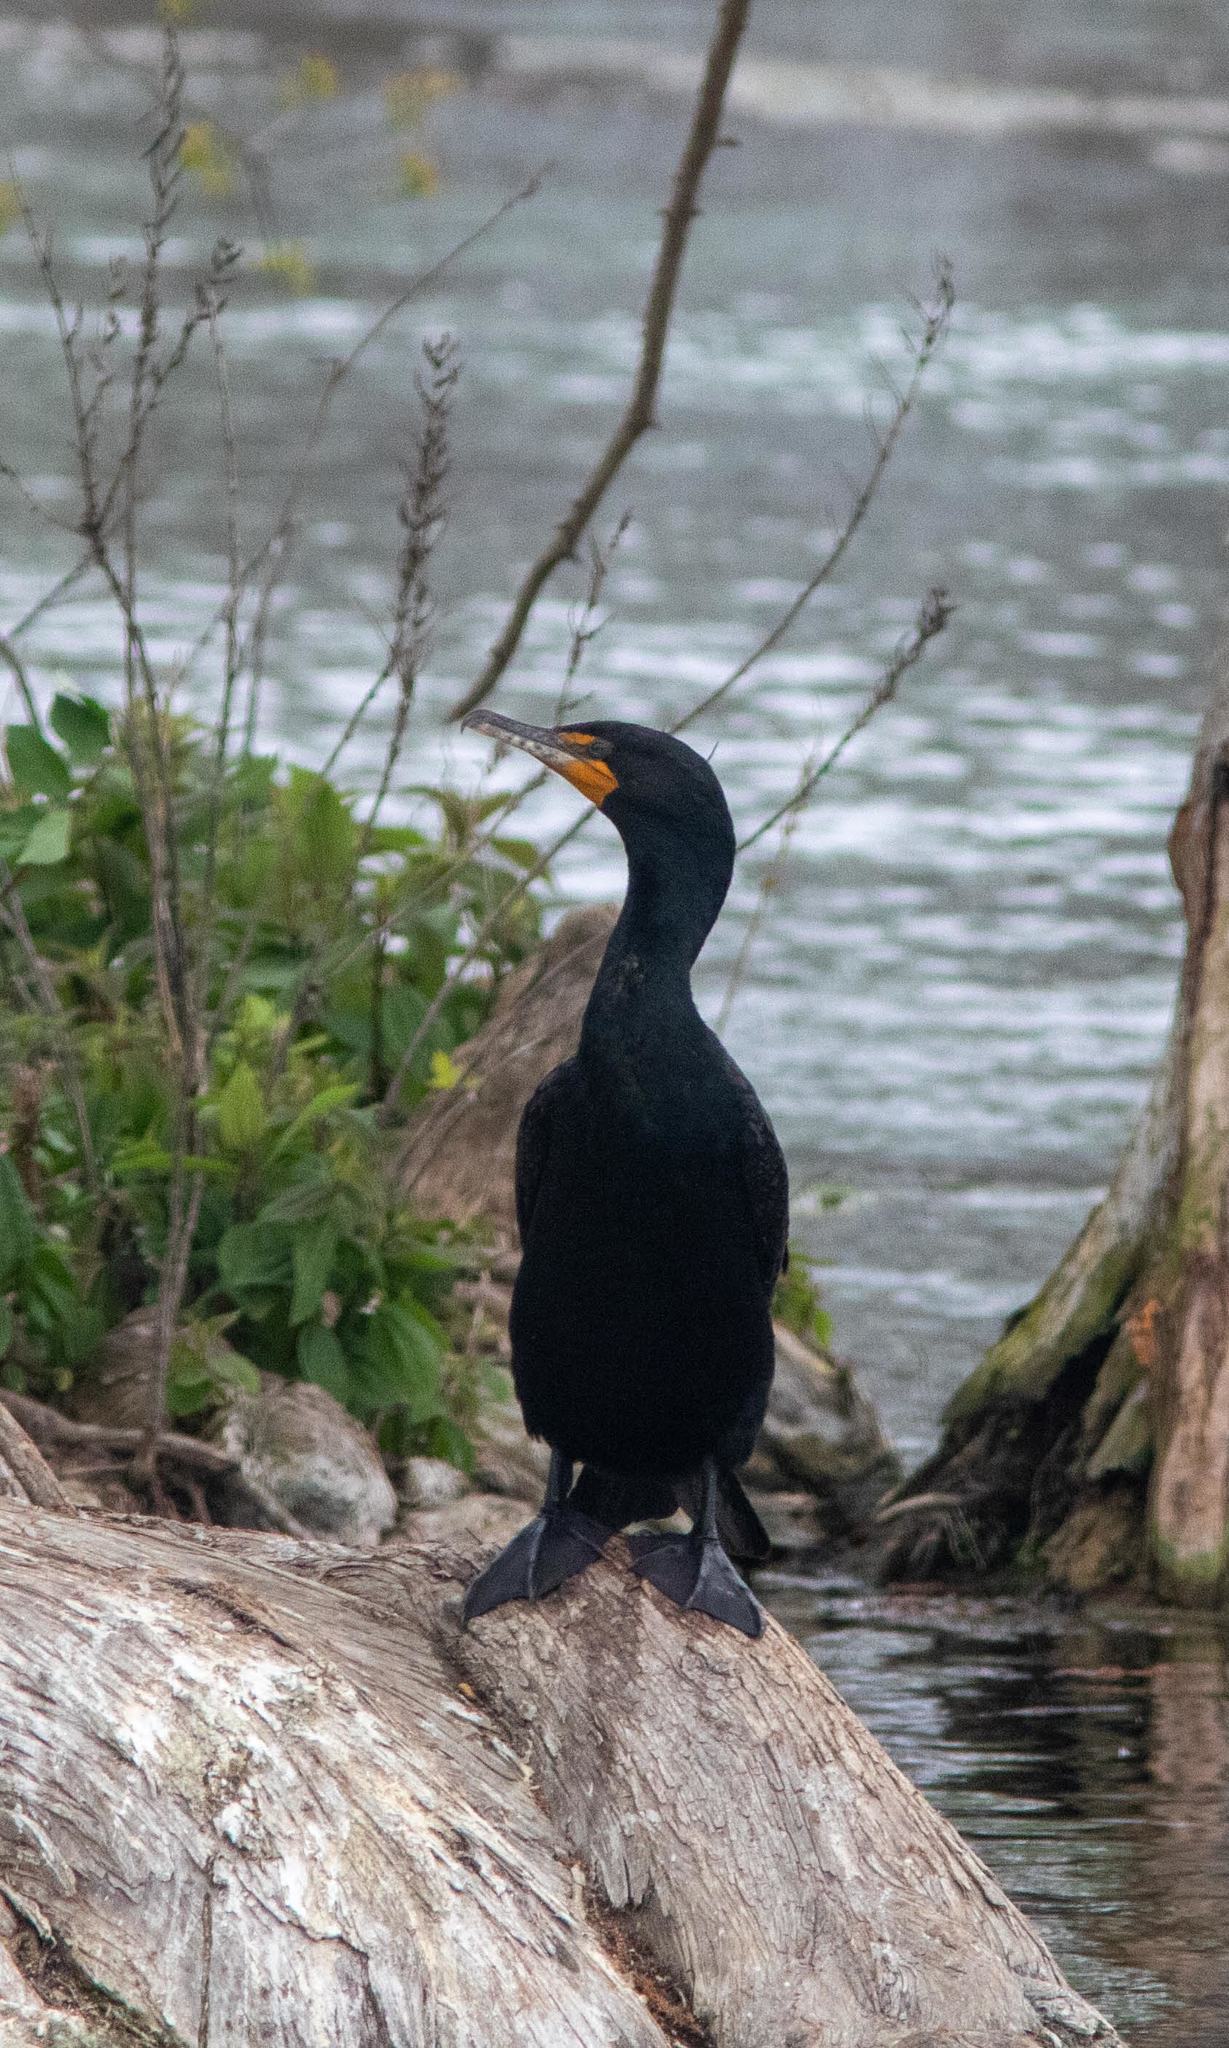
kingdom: Animalia
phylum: Chordata
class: Aves
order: Suliformes
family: Phalacrocoracidae
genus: Phalacrocorax
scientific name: Phalacrocorax auritus
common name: Double-crested cormorant
